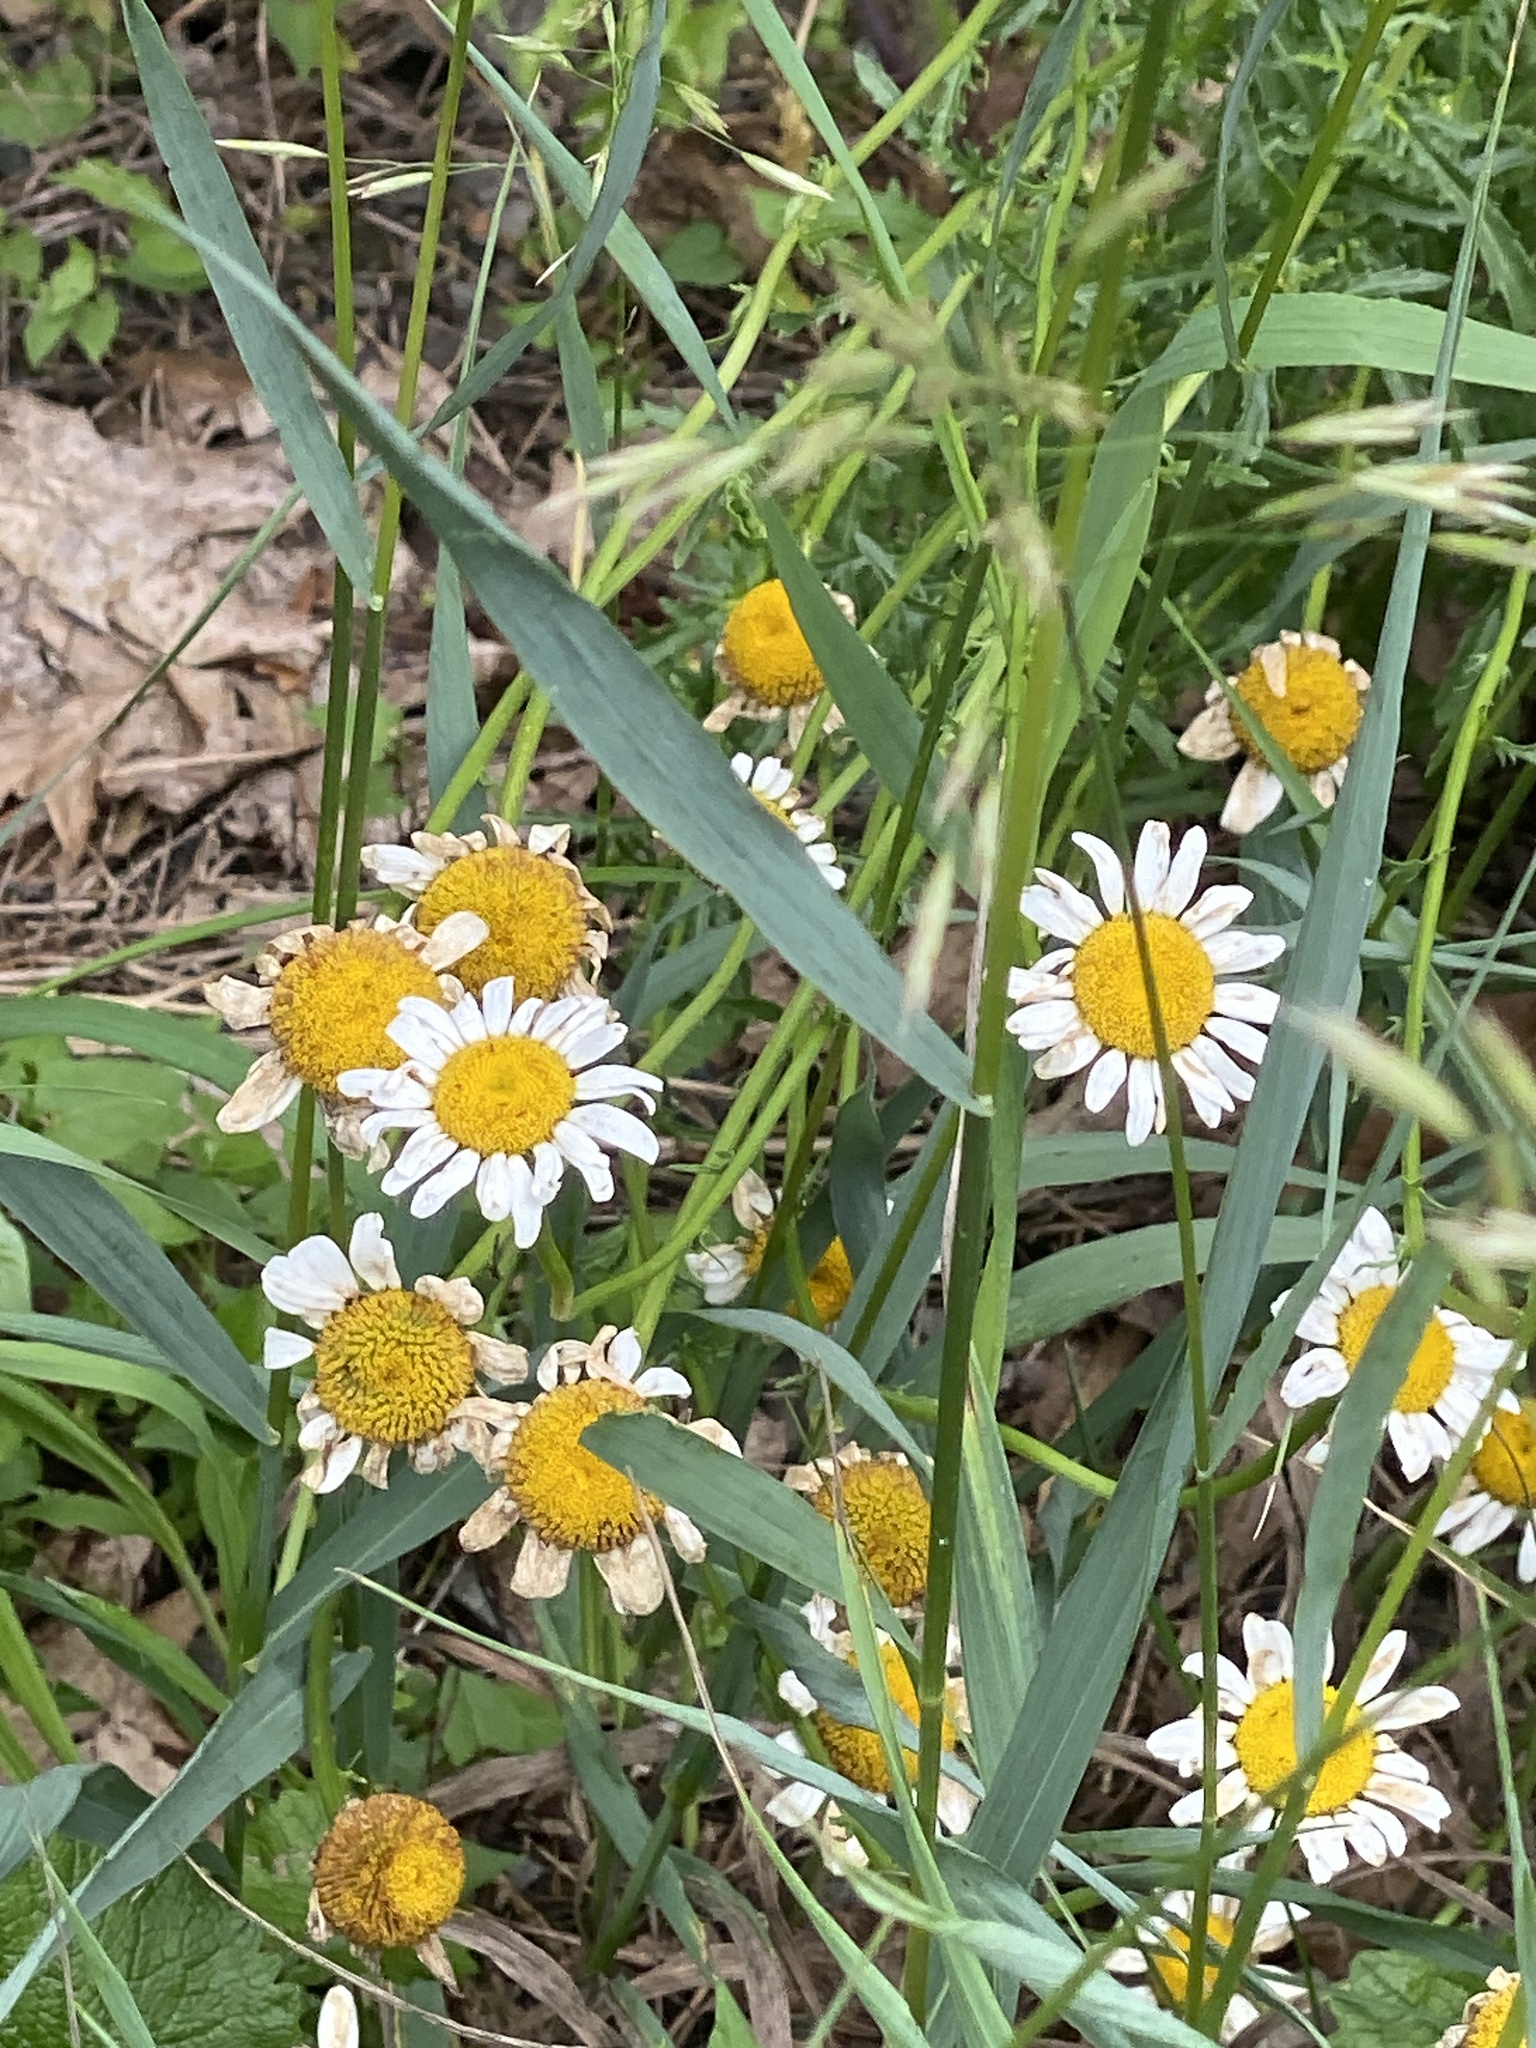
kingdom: Plantae
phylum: Tracheophyta
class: Magnoliopsida
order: Asterales
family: Asteraceae
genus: Leucanthemum
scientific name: Leucanthemum vulgare
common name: Oxeye daisy
